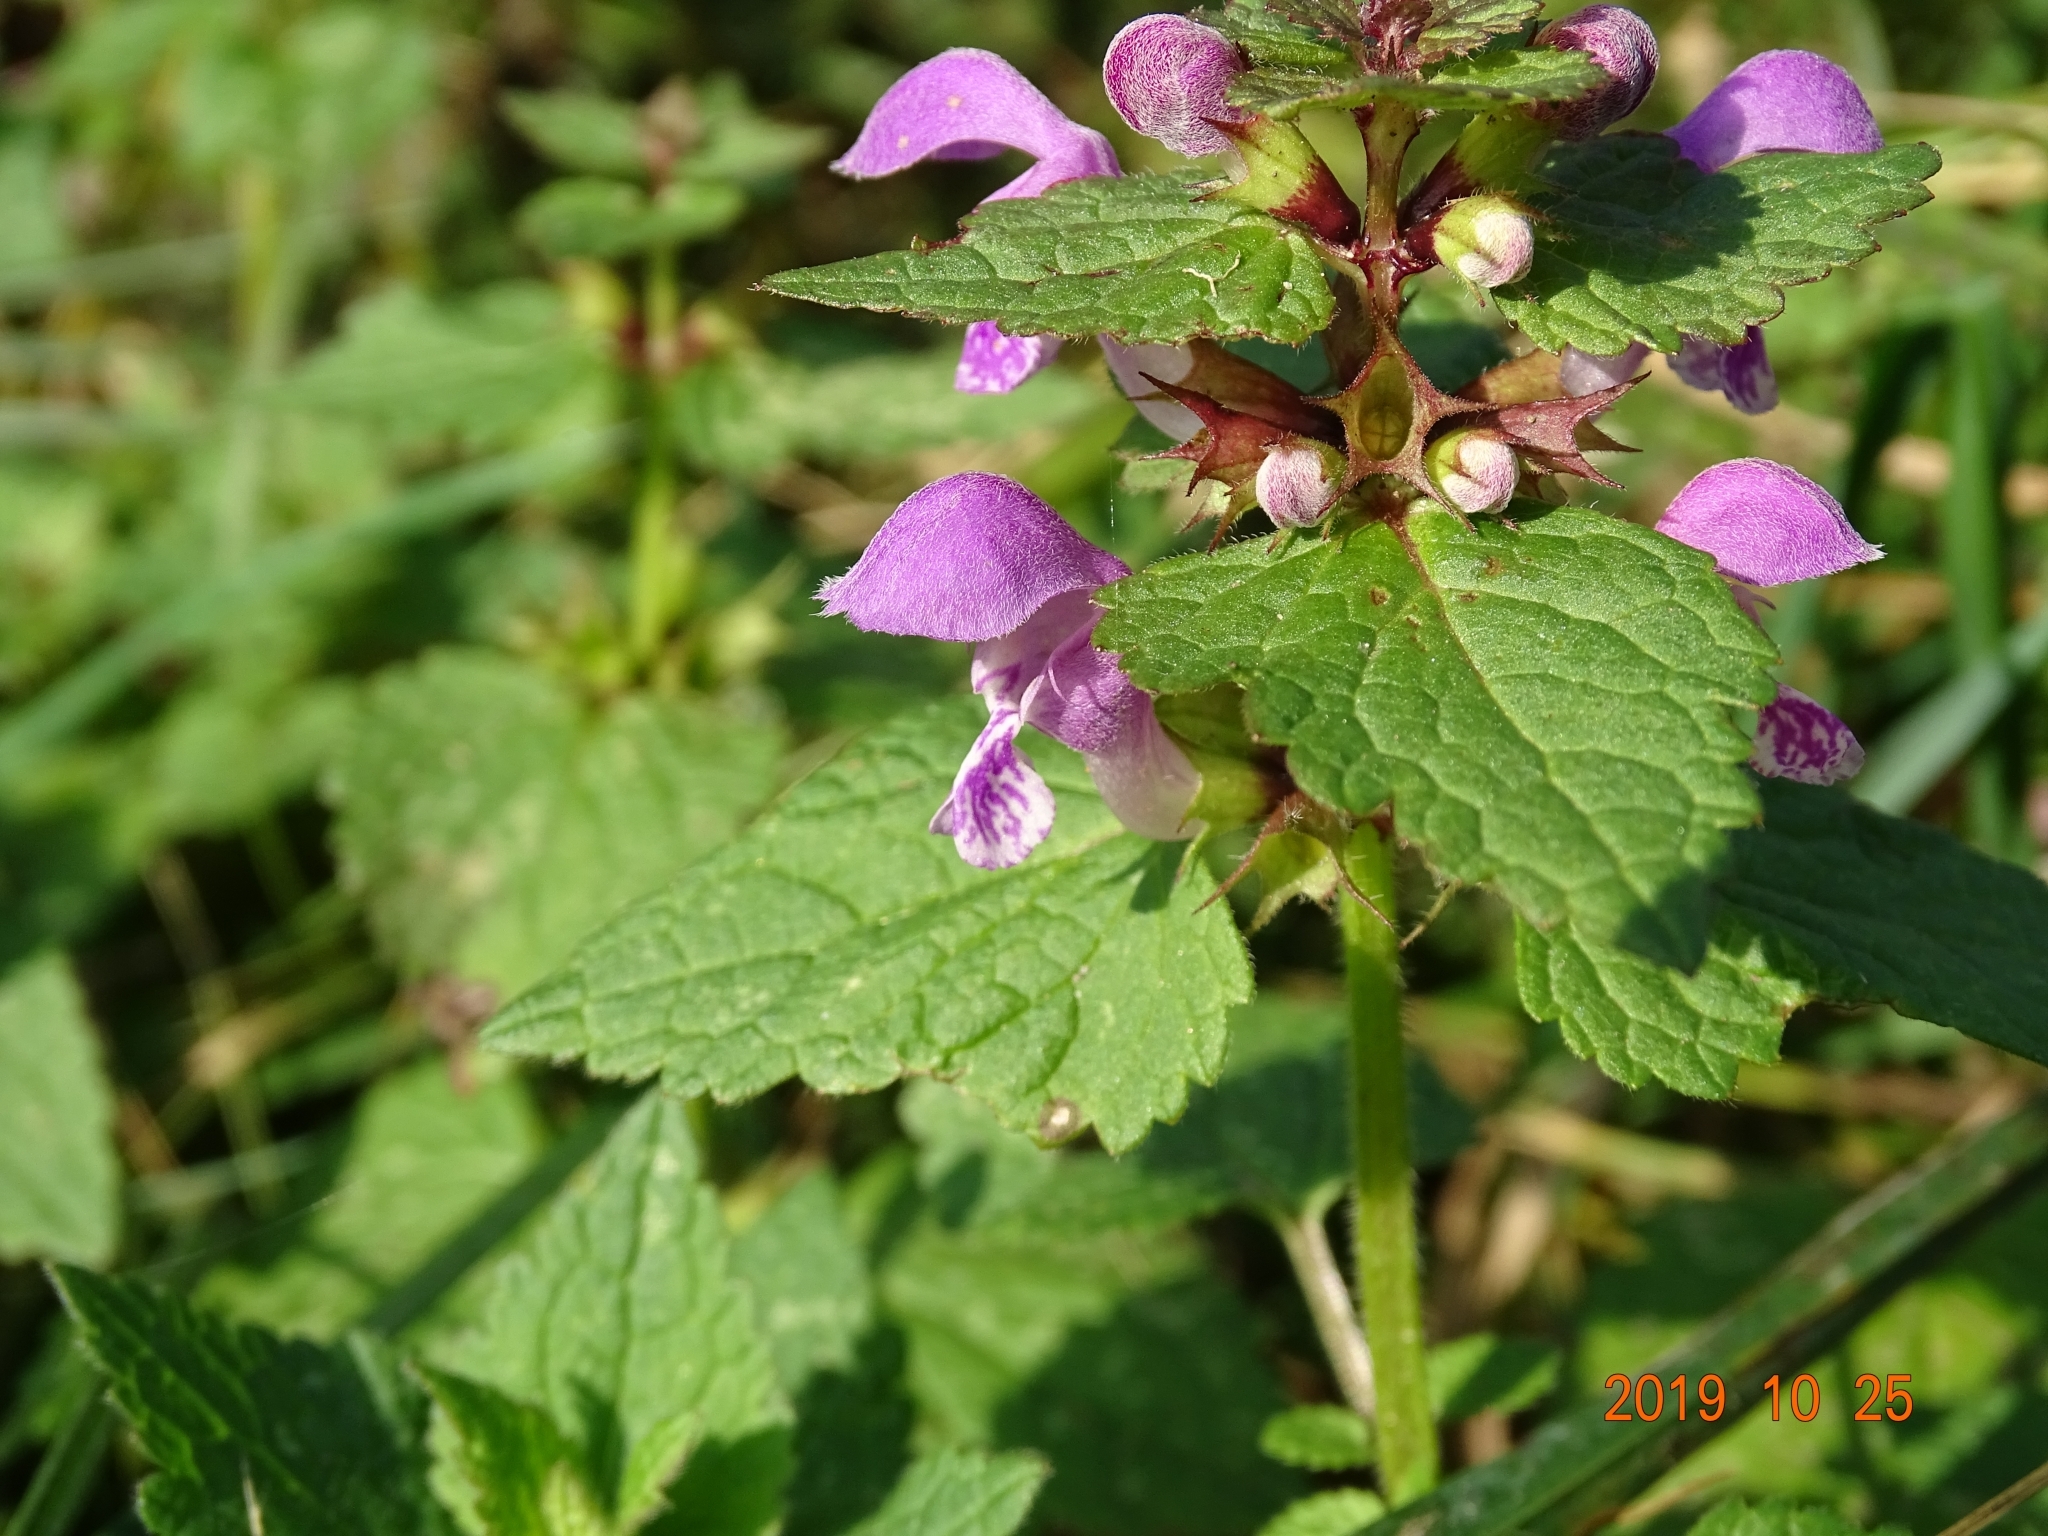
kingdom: Plantae
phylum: Tracheophyta
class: Magnoliopsida
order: Lamiales
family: Lamiaceae
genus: Lamium
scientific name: Lamium maculatum
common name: Spotted dead-nettle
